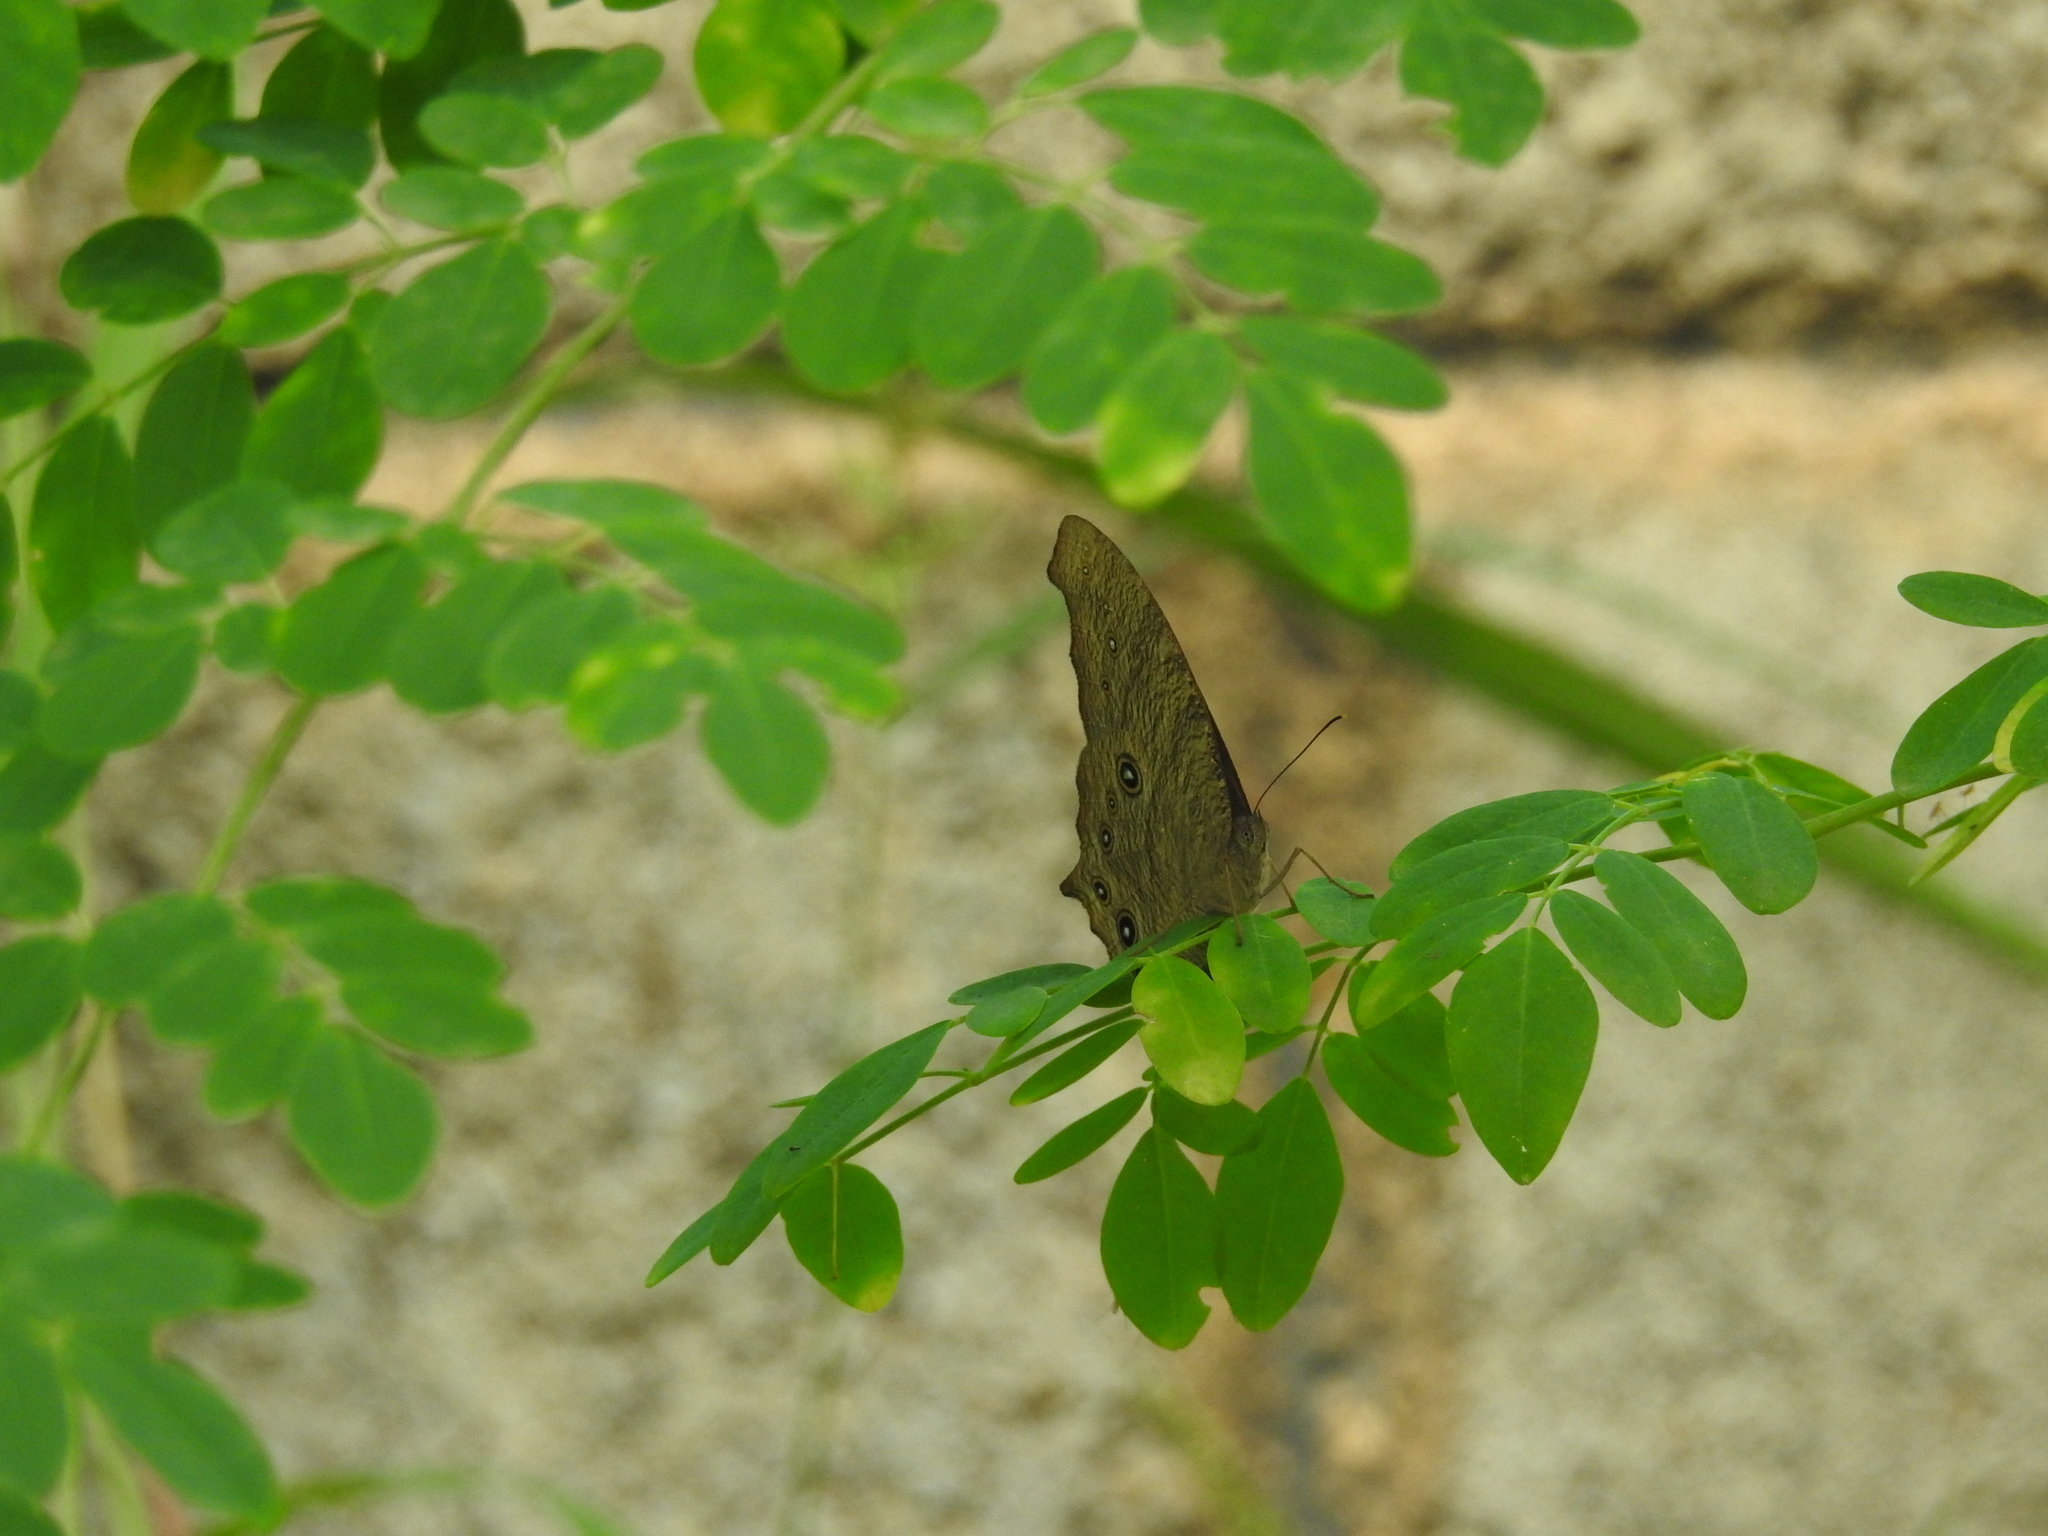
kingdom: Animalia
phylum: Arthropoda
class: Insecta
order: Lepidoptera
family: Nymphalidae
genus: Melanitis
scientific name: Melanitis leda
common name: Twilight brown
